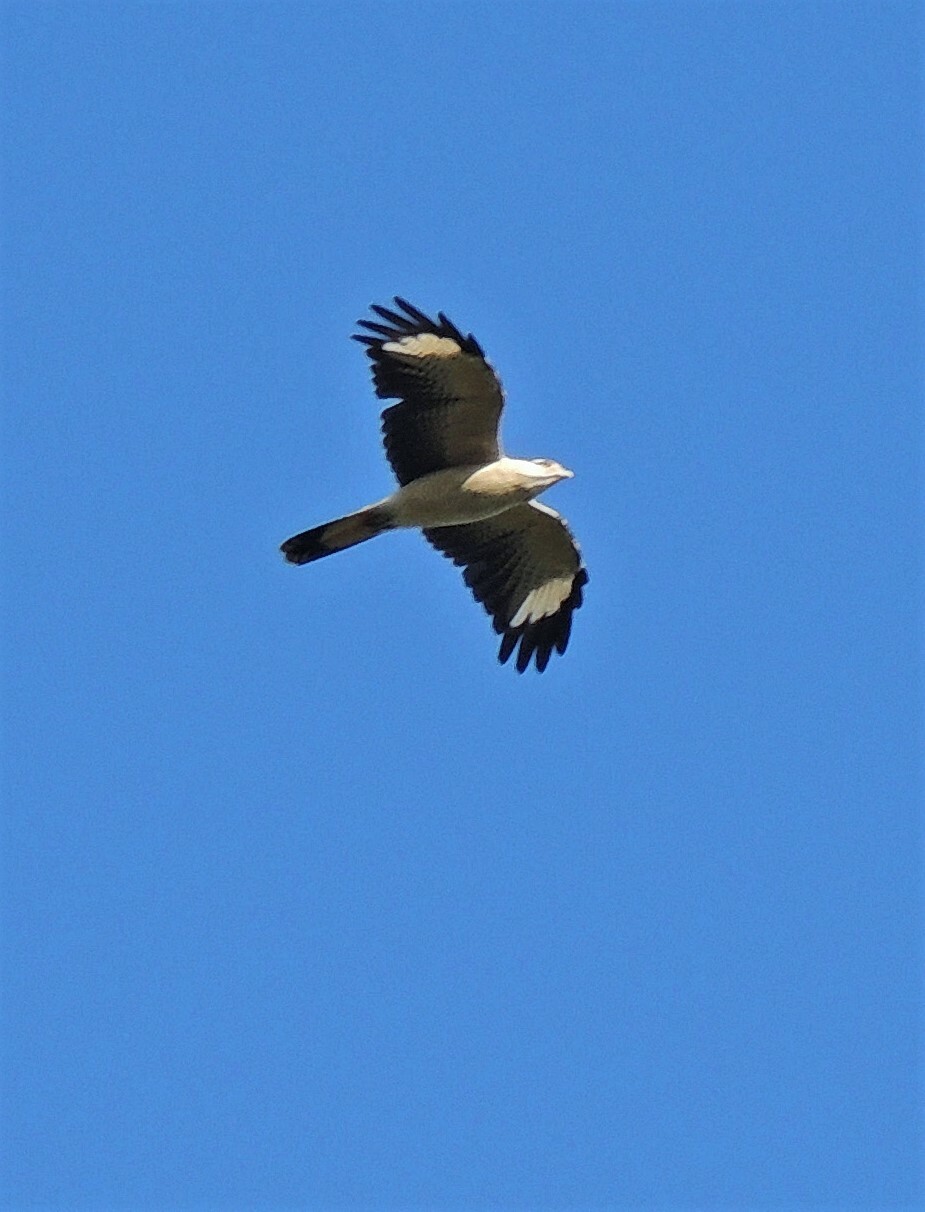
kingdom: Animalia
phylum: Chordata
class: Aves
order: Falconiformes
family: Falconidae
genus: Daptrius
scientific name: Daptrius
